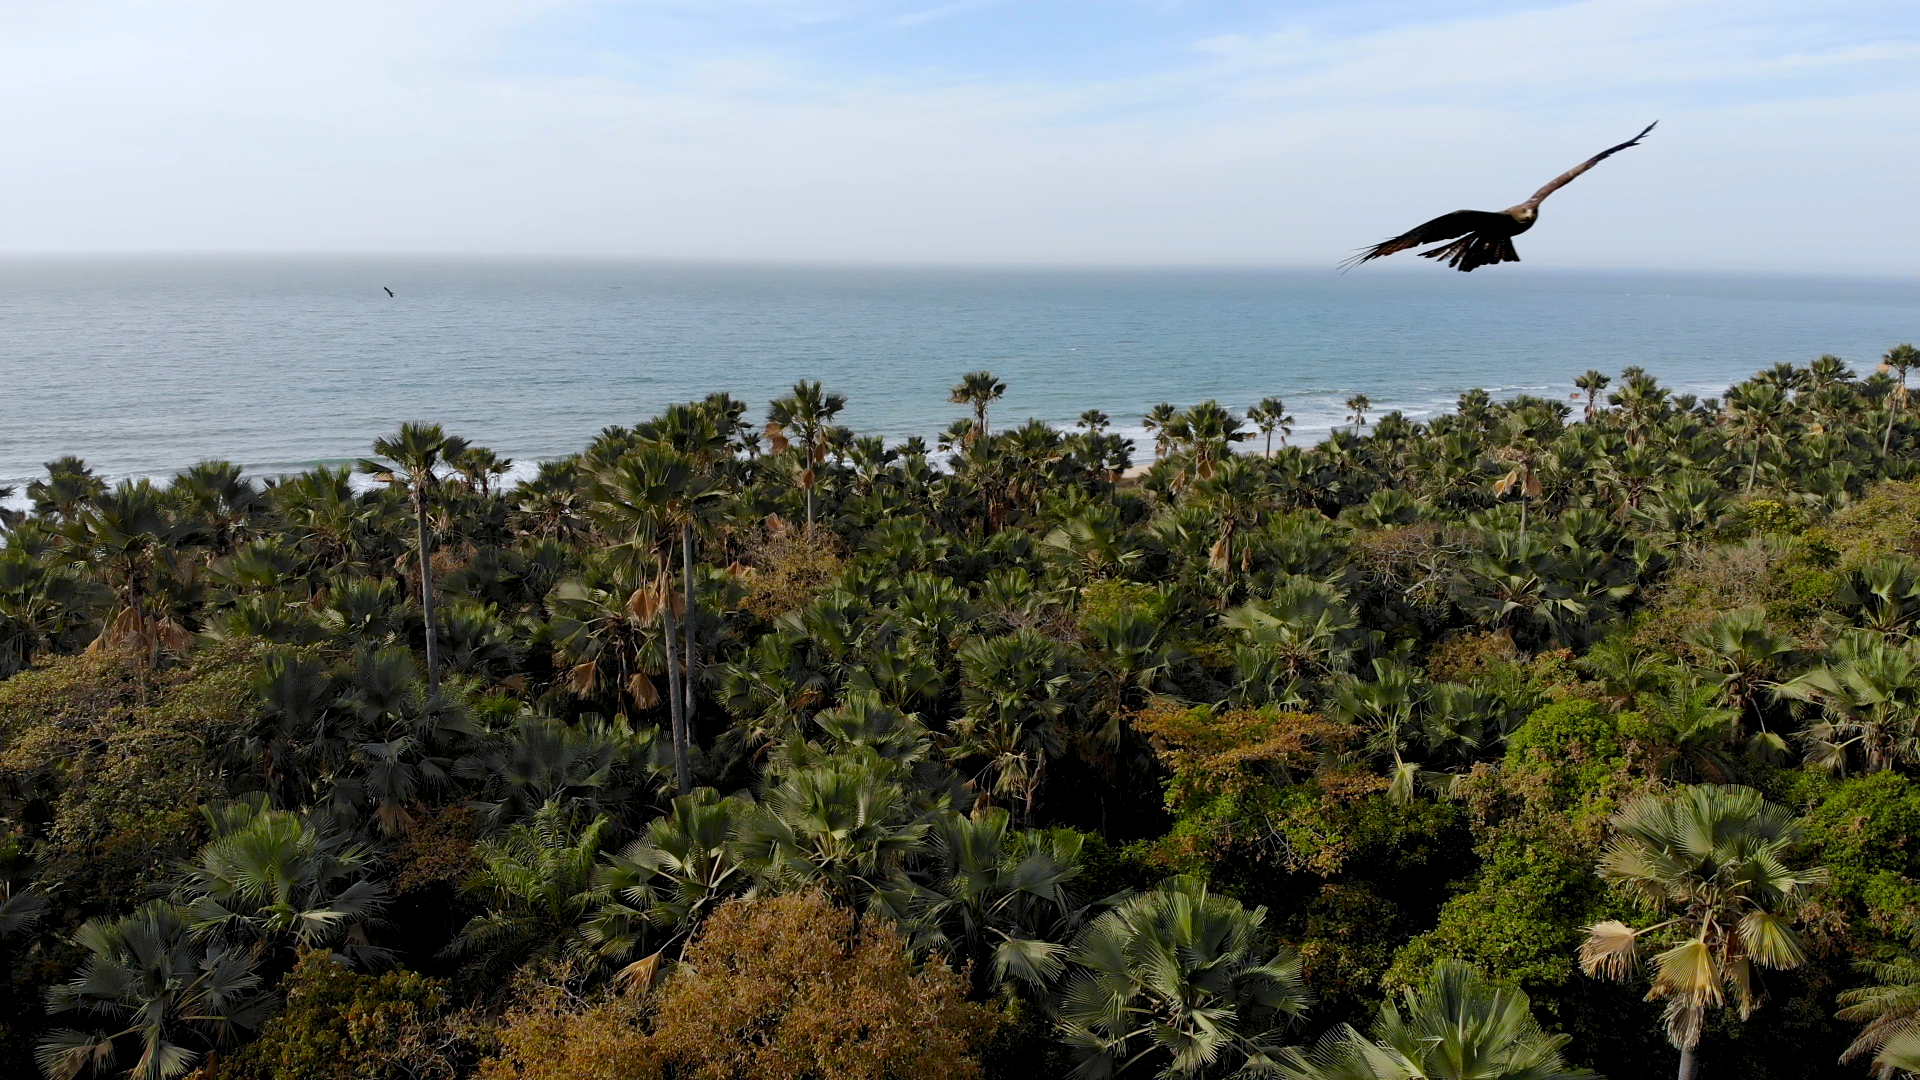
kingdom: Animalia
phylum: Chordata
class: Aves
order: Accipitriformes
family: Accipitridae
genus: Milvus
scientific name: Milvus migrans
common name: Black kite
